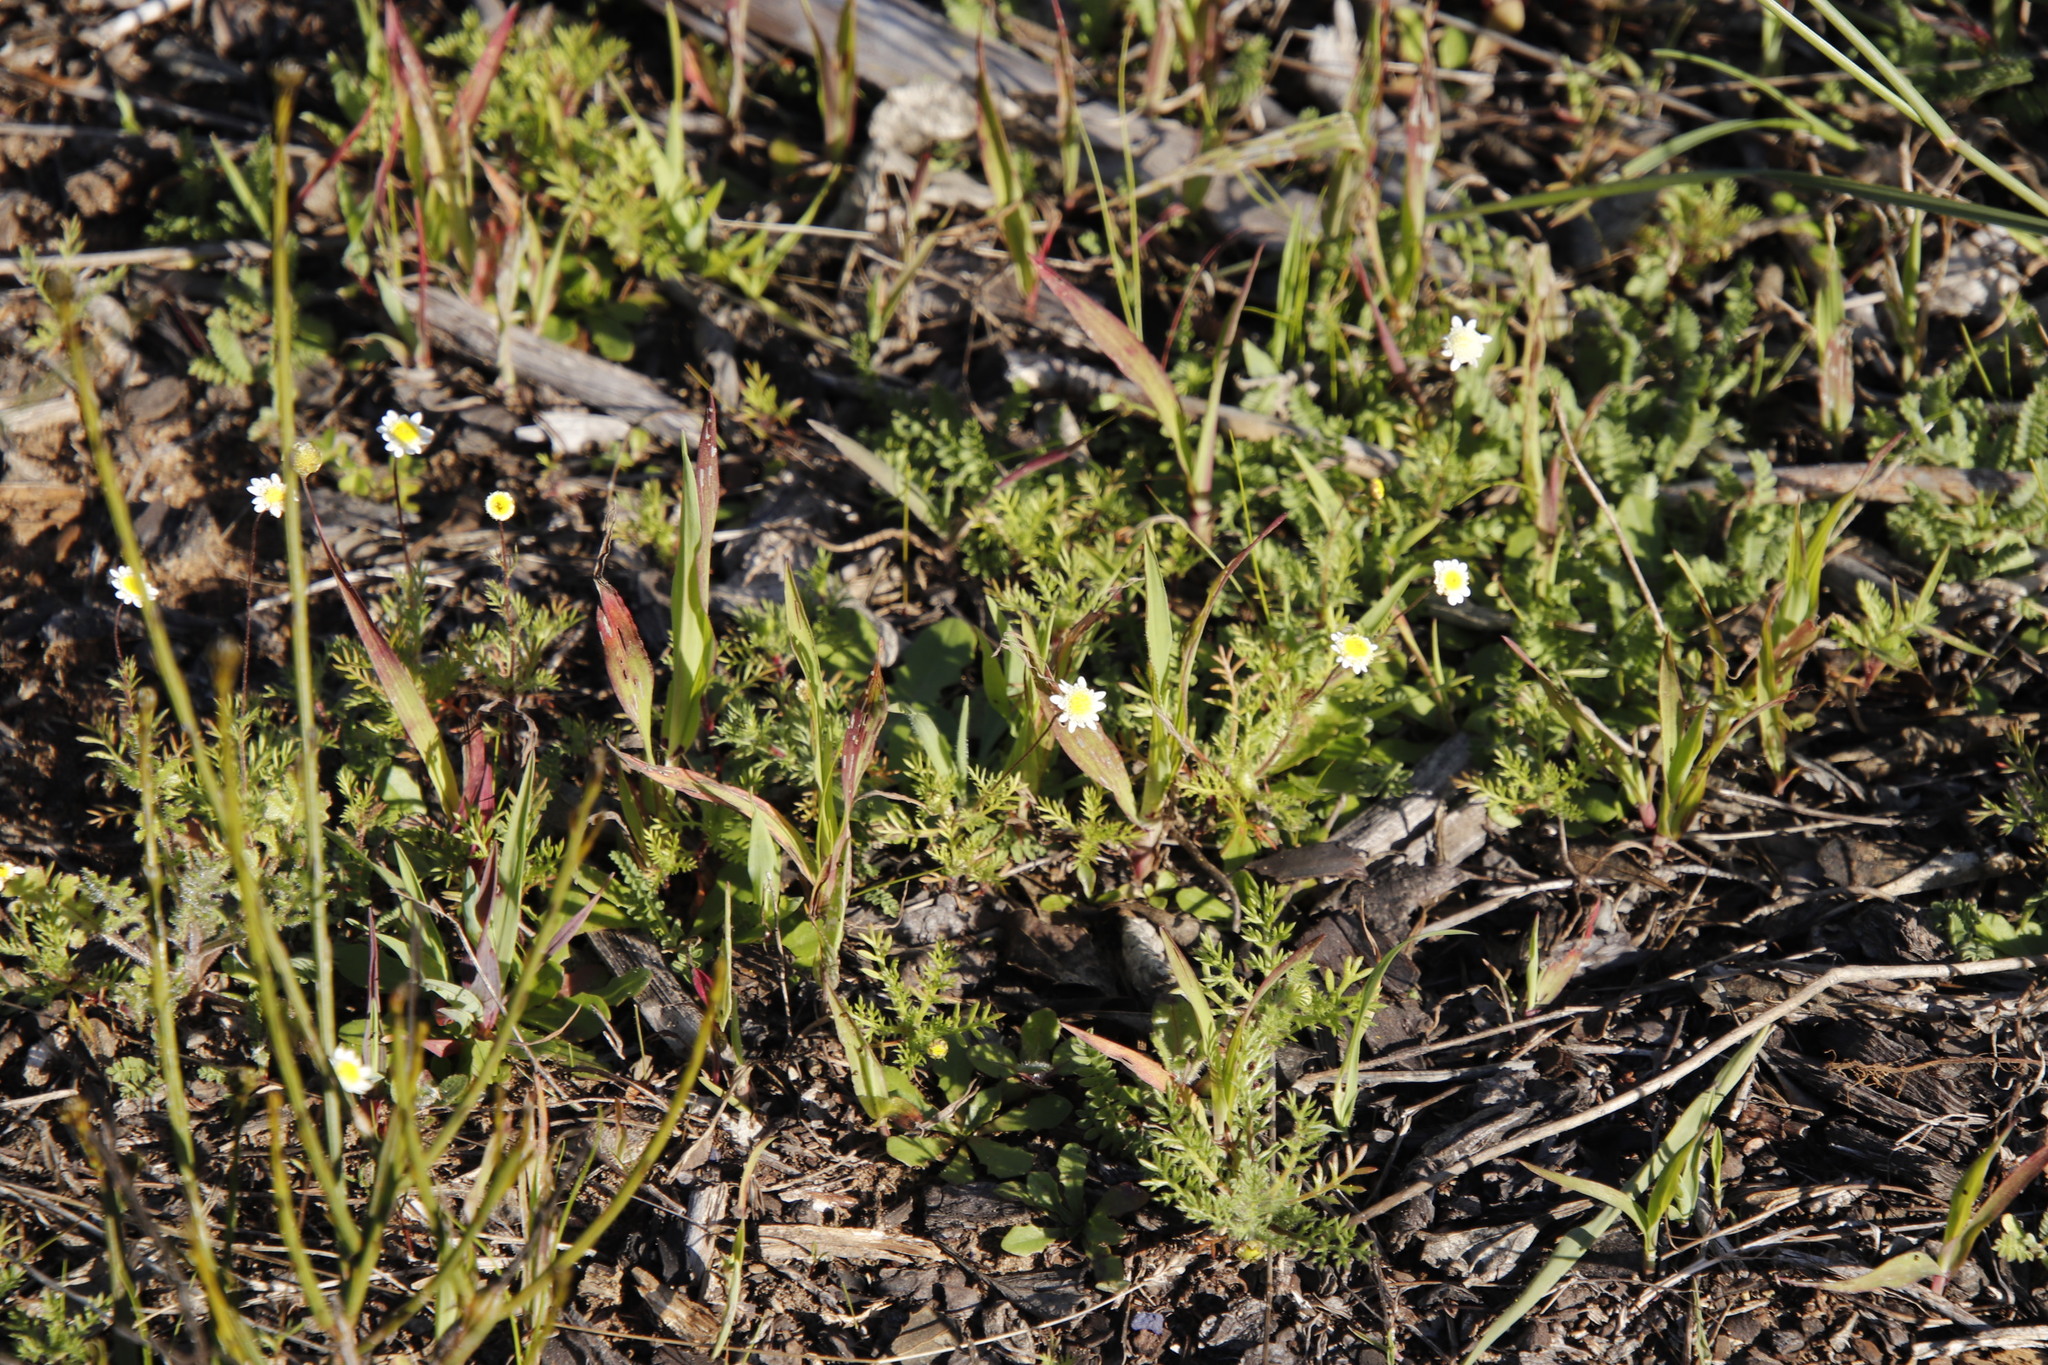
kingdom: Plantae
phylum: Tracheophyta
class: Magnoliopsida
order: Asterales
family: Asteraceae
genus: Cotula
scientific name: Cotula turbinata
